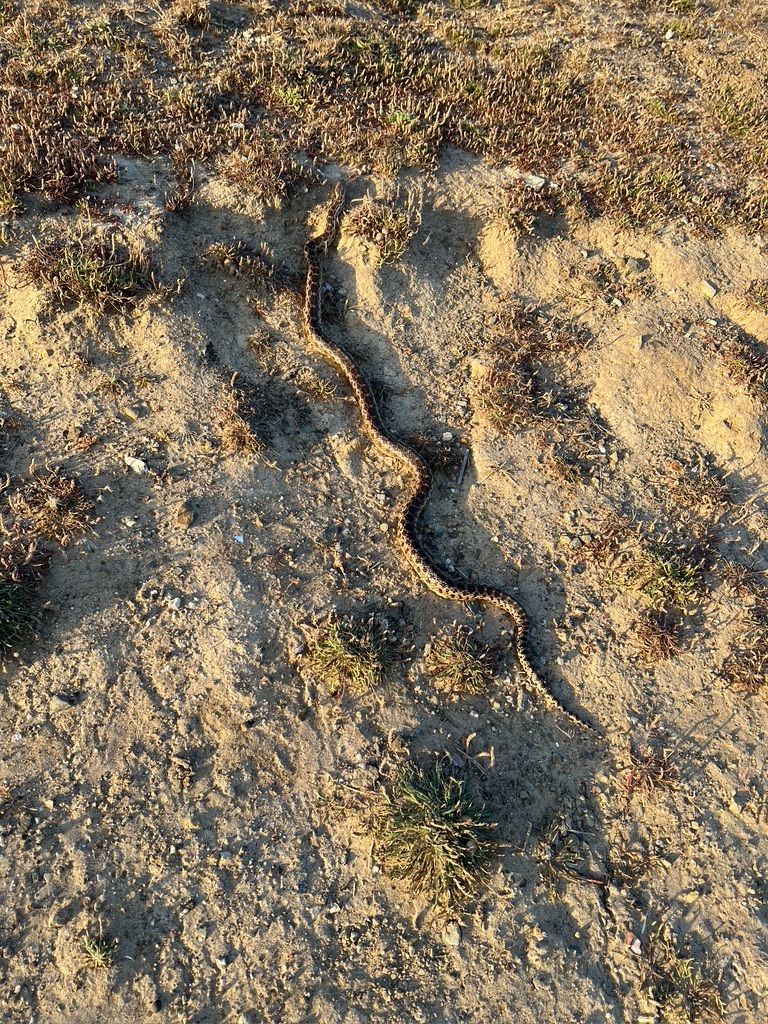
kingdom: Animalia
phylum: Chordata
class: Squamata
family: Colubridae
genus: Pituophis
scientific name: Pituophis catenifer
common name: Gopher snake
